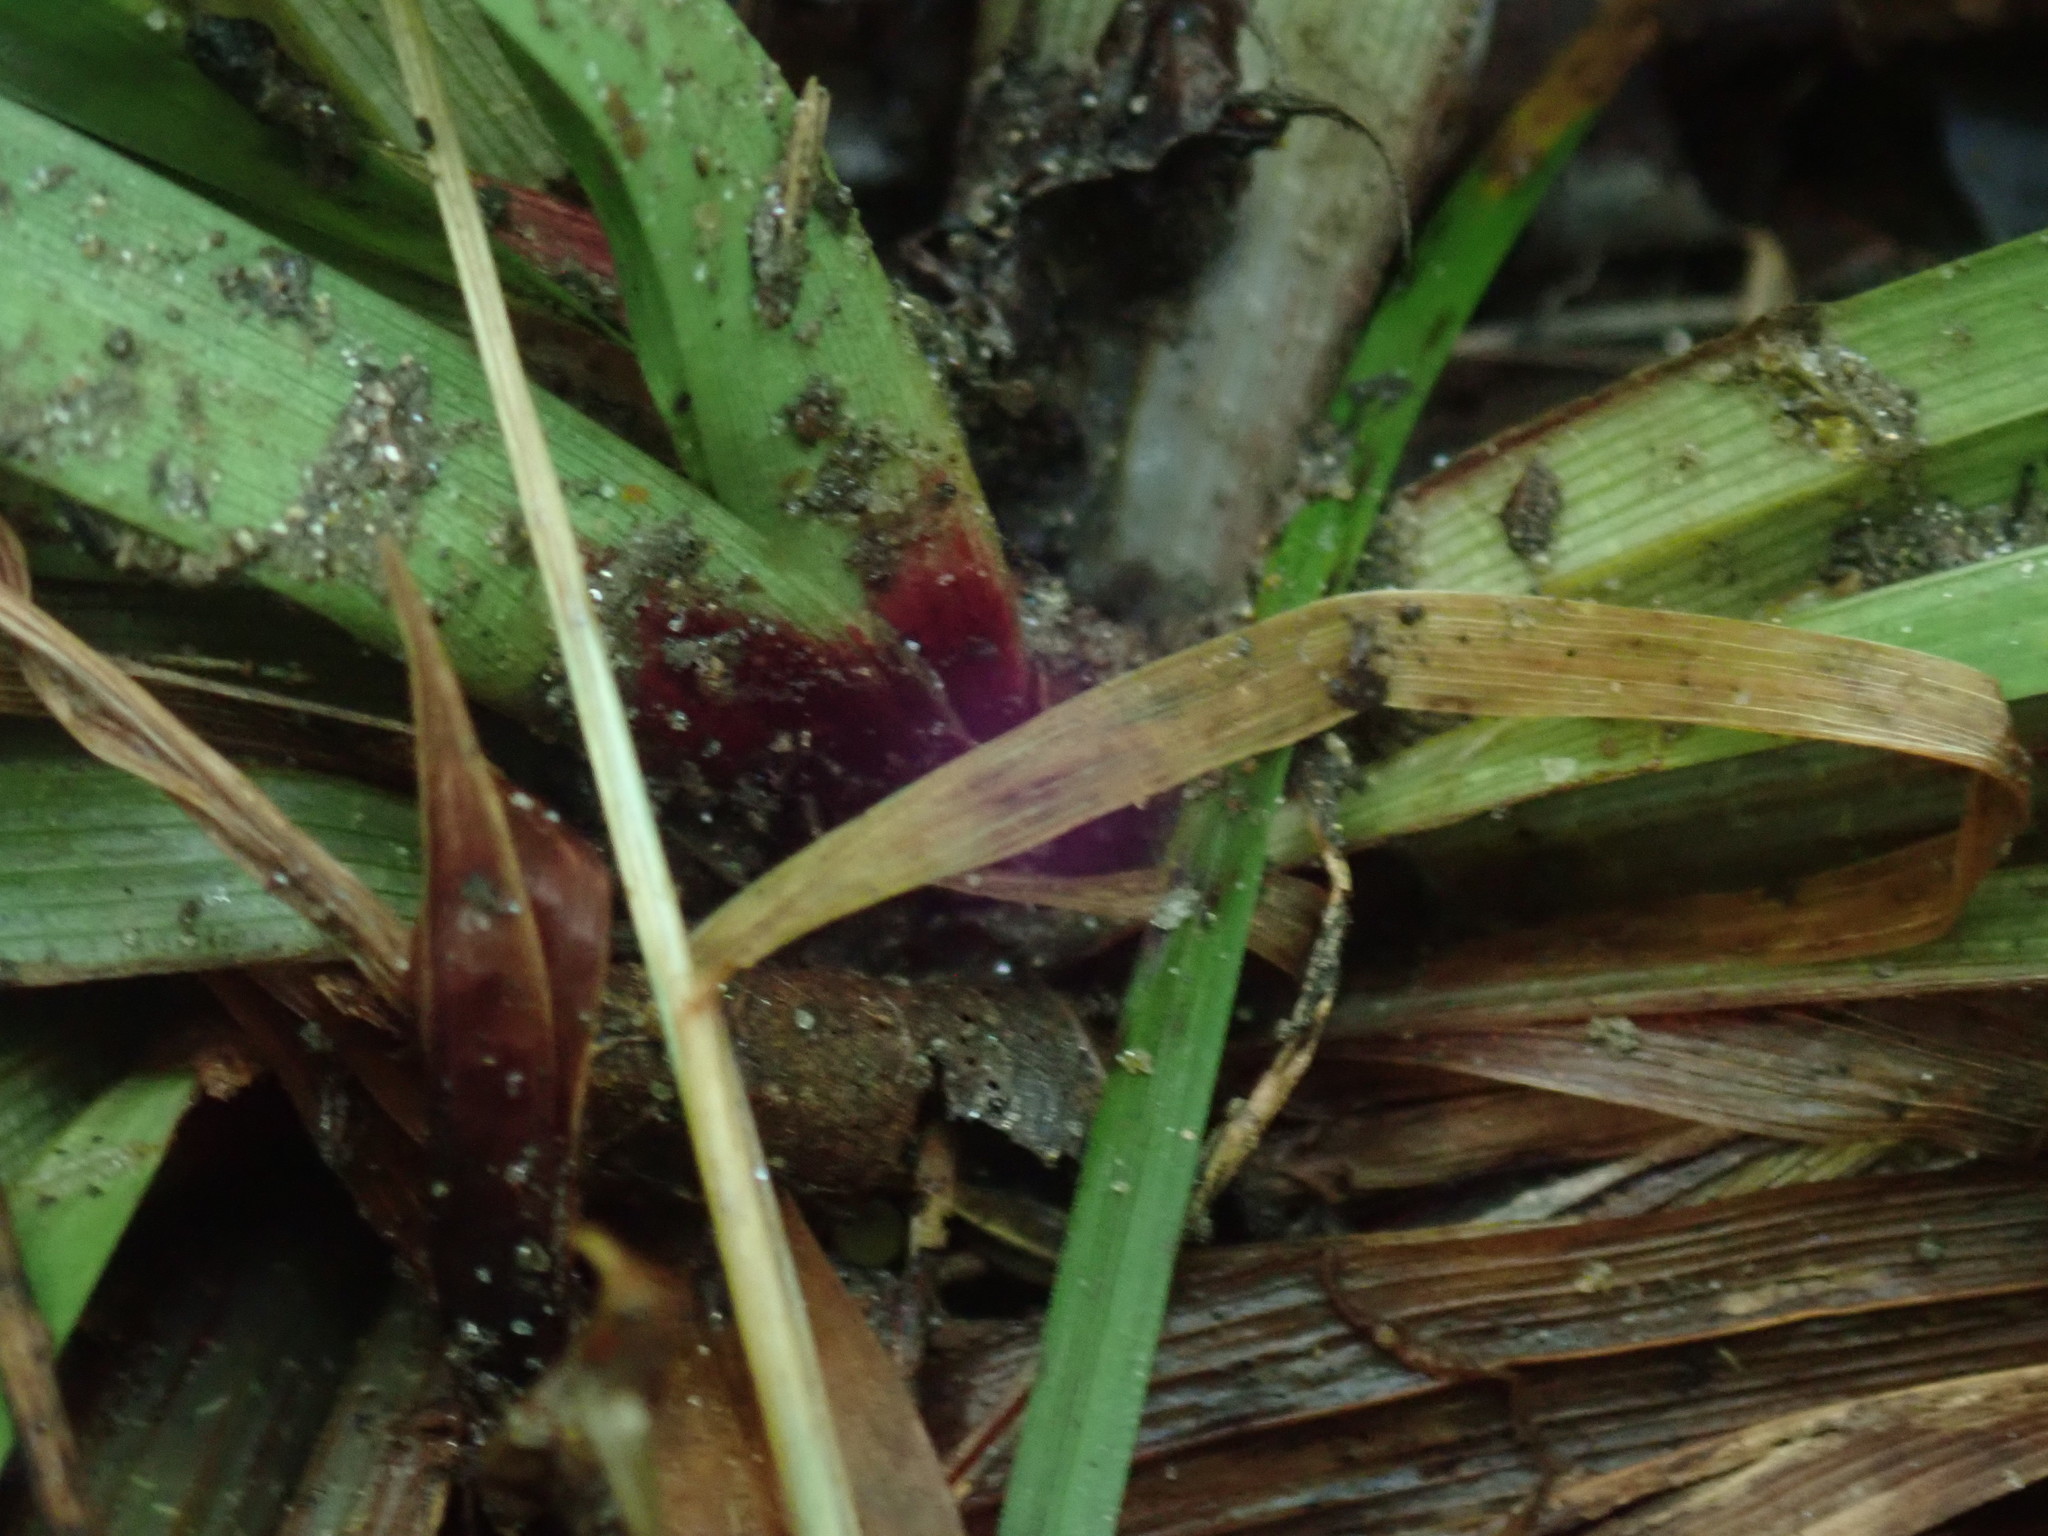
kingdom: Plantae
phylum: Tracheophyta
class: Liliopsida
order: Poales
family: Cyperaceae
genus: Carex
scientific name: Carex plantaginea
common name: Plantain-leaved sedge
